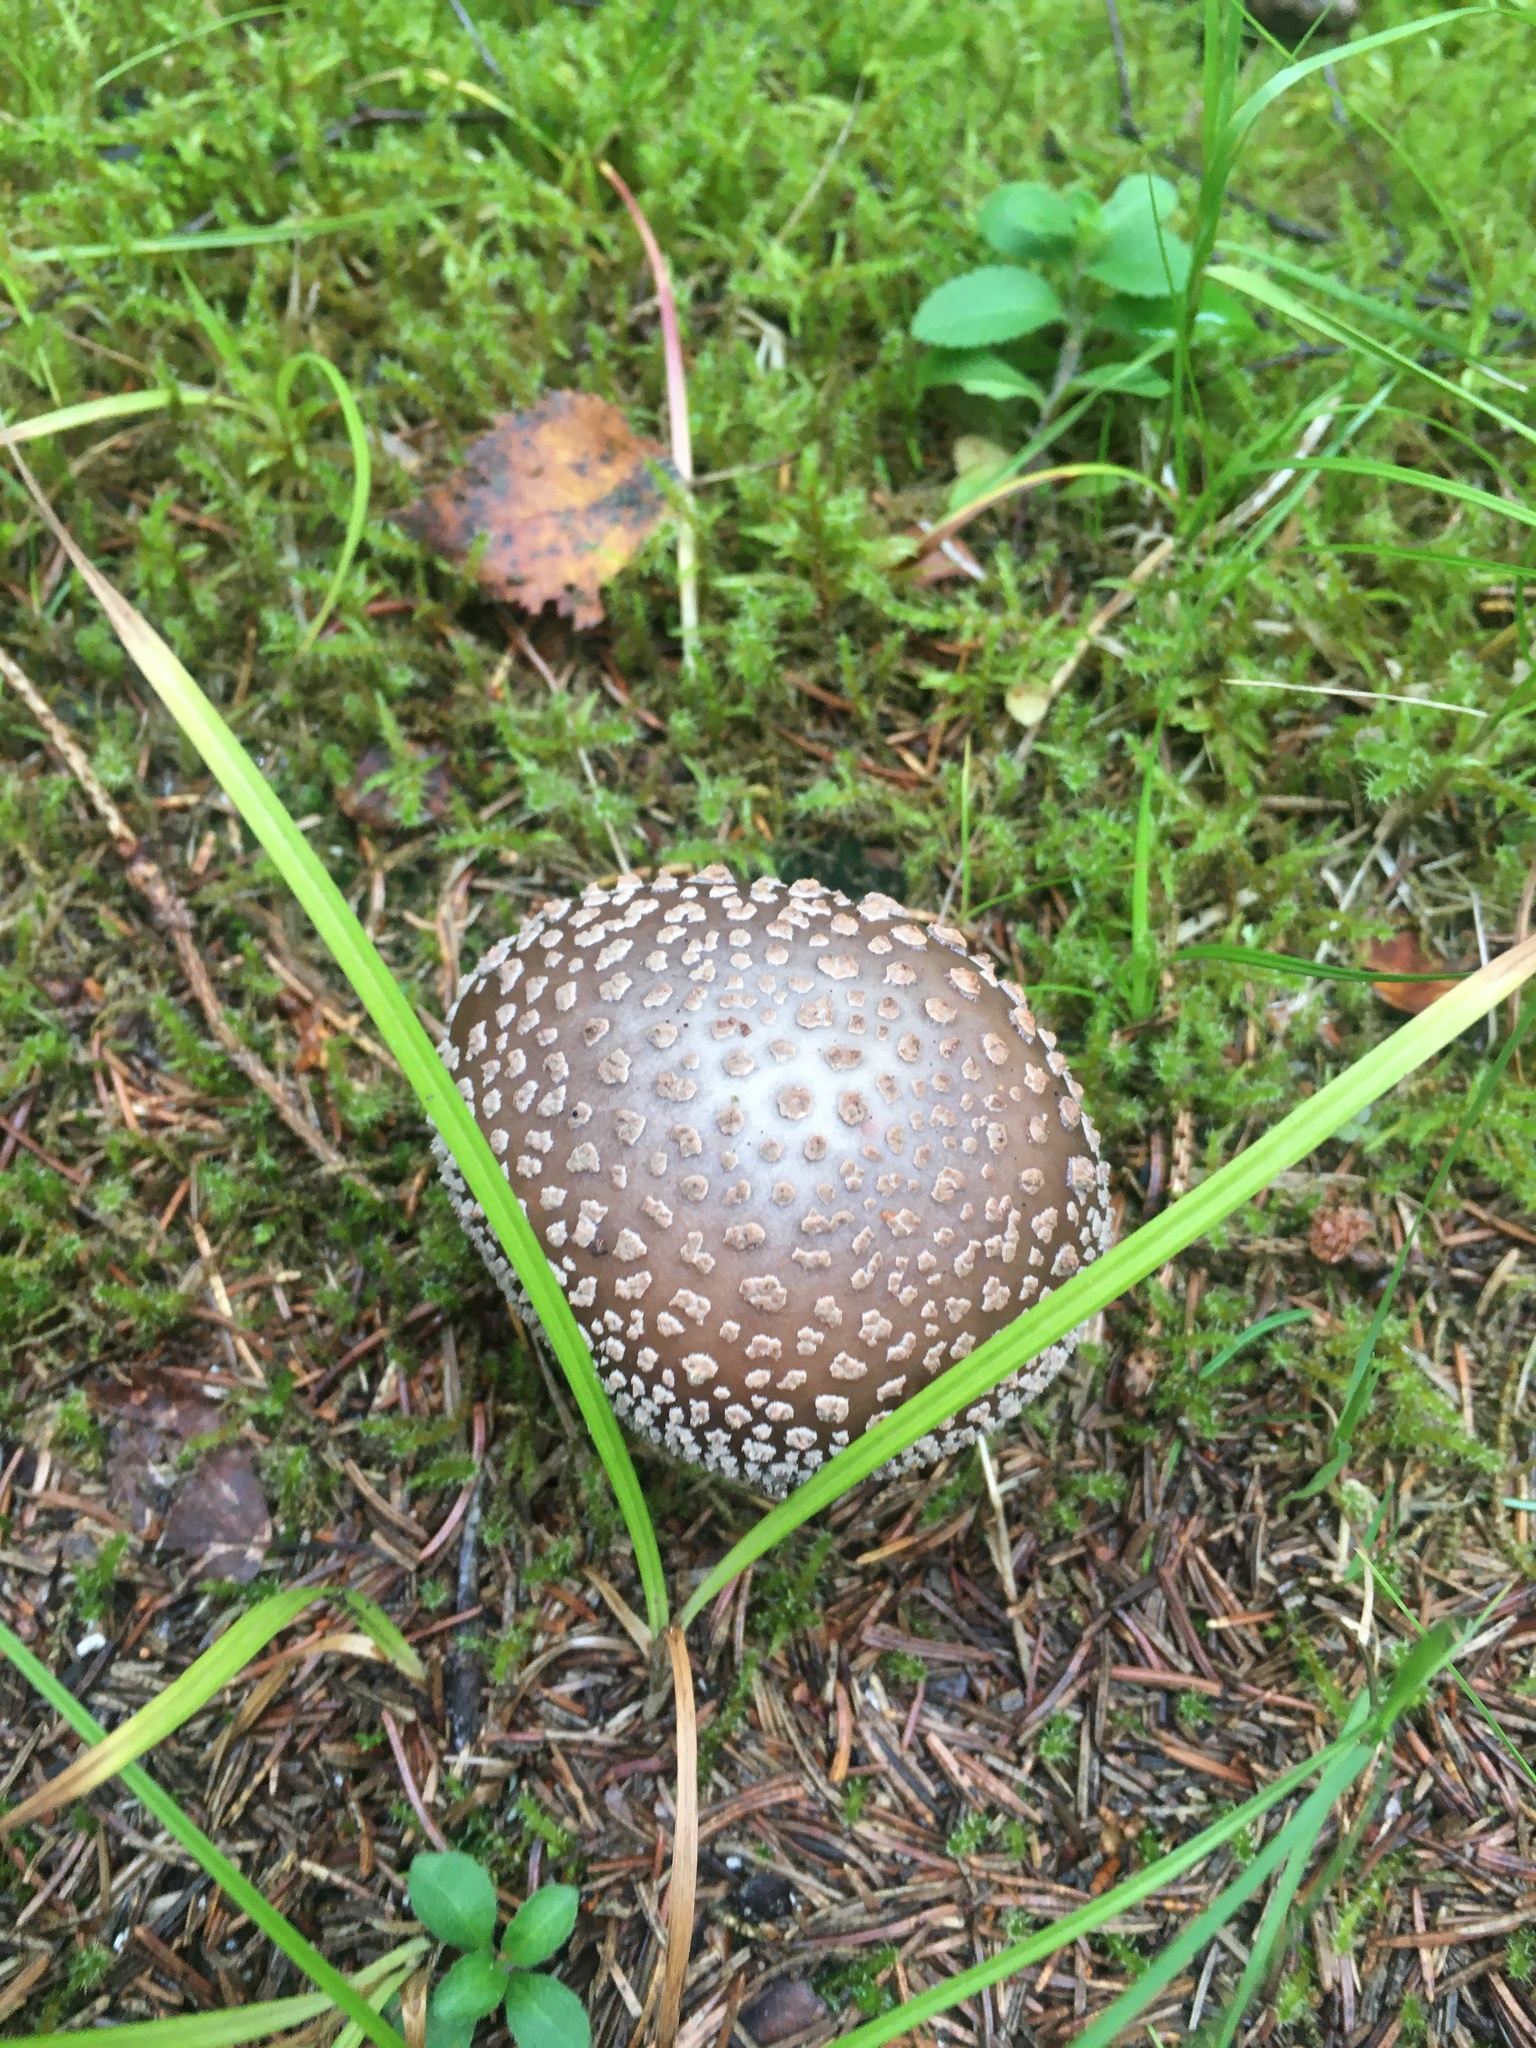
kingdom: Fungi
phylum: Basidiomycota
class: Agaricomycetes
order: Agaricales
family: Amanitaceae
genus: Amanita
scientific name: Amanita rubescens
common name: Blusher
